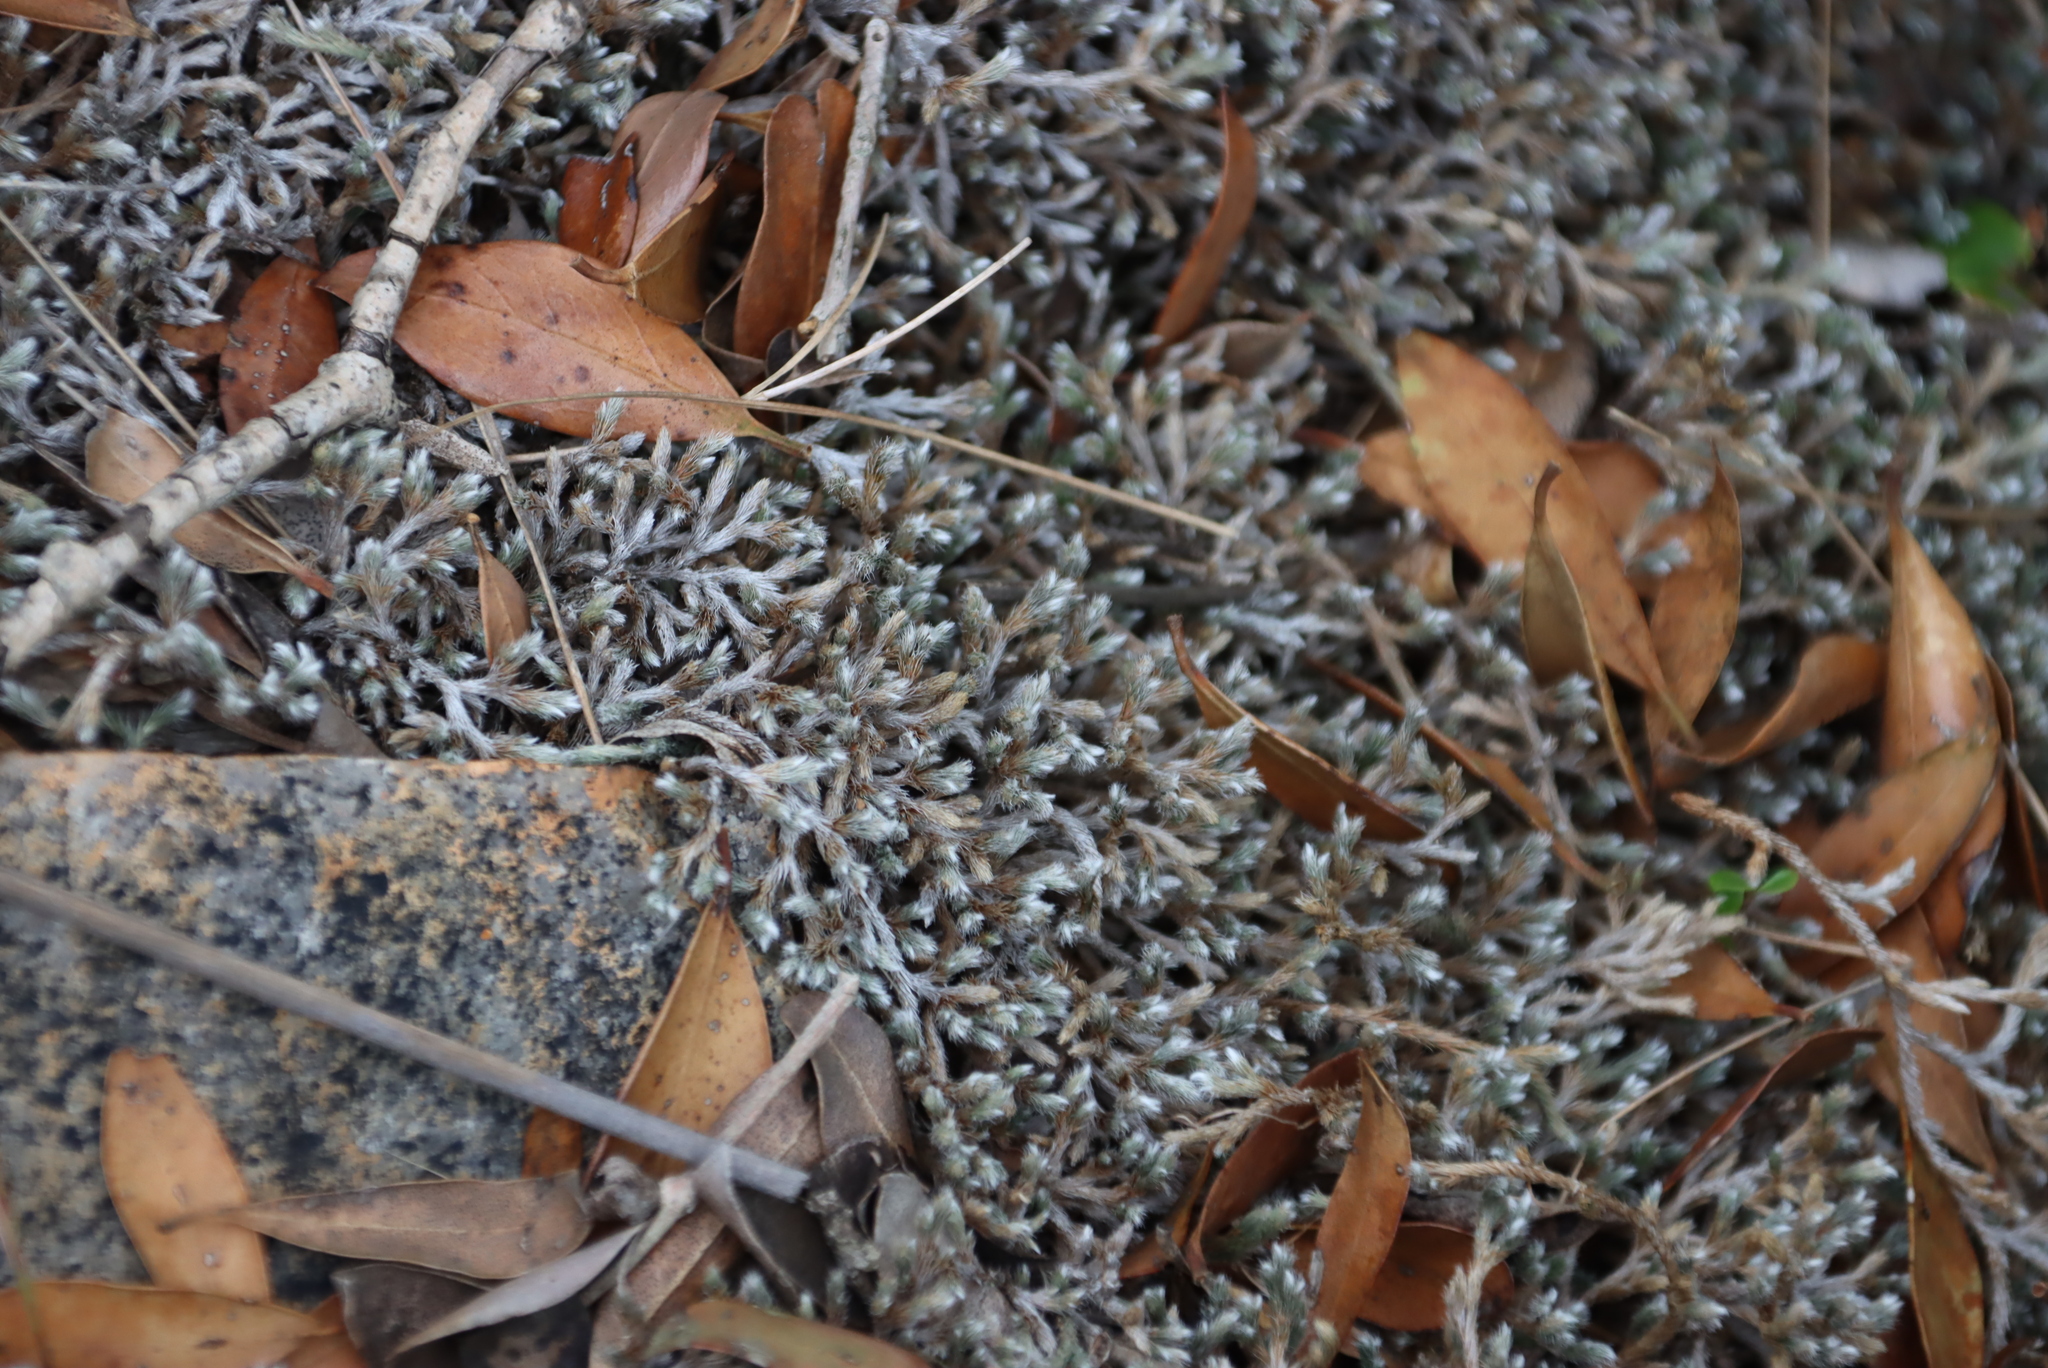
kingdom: Plantae
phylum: Tracheophyta
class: Lycopodiopsida
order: Selaginellales
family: Selaginellaceae
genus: Selaginella
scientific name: Selaginella dregei
